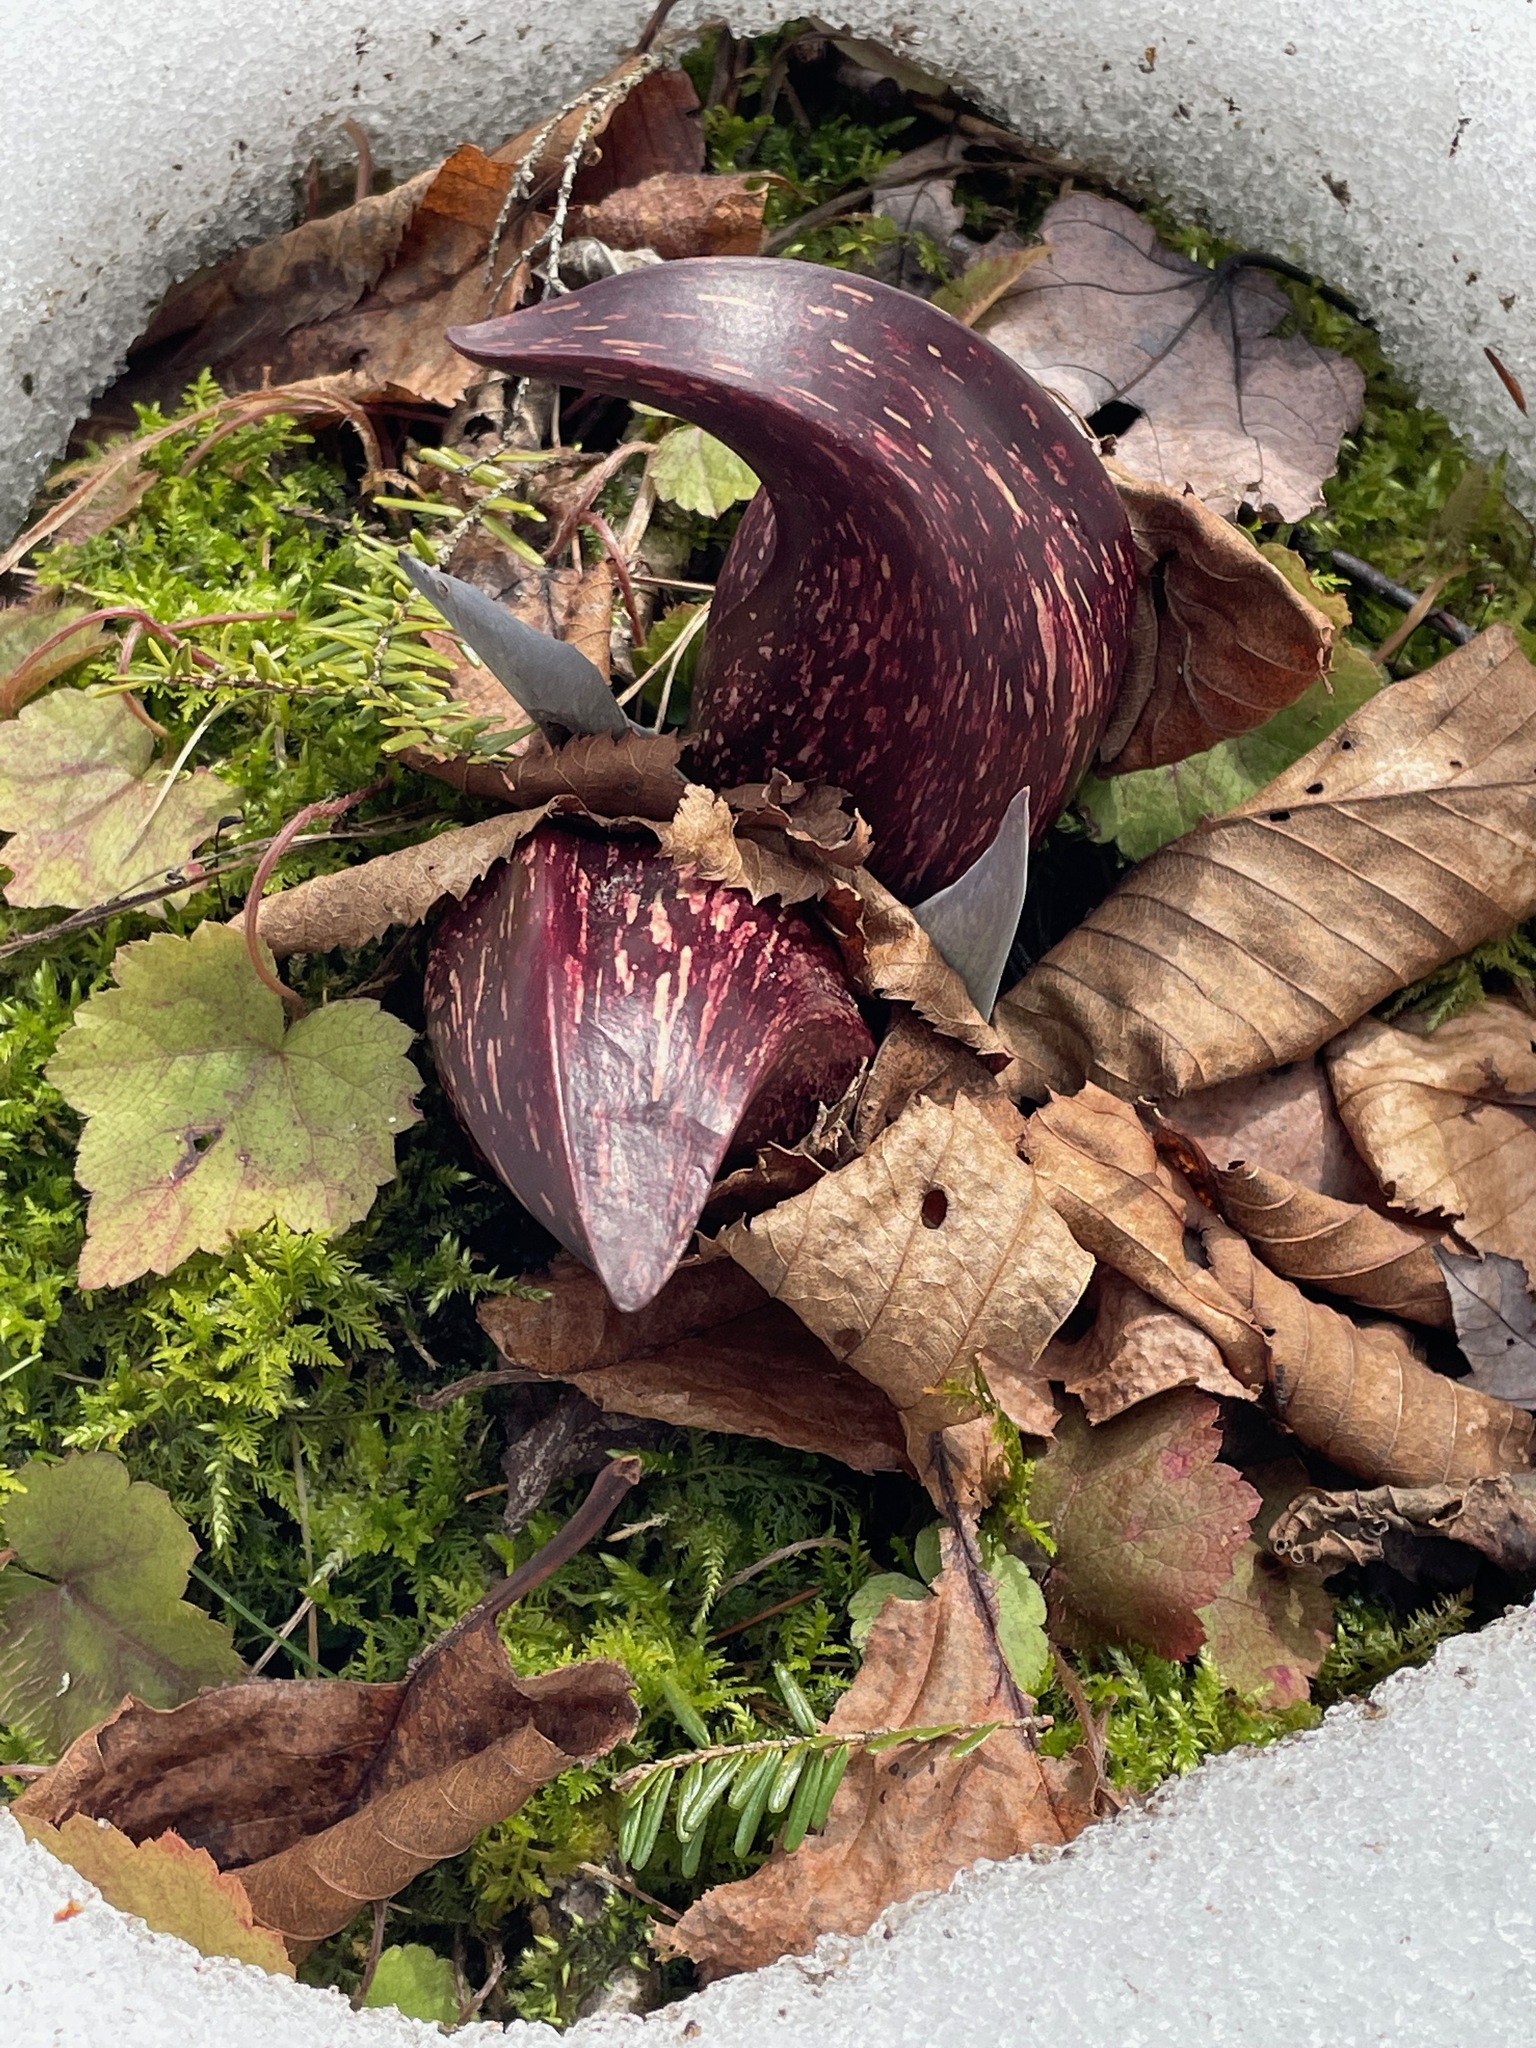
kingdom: Plantae
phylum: Tracheophyta
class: Liliopsida
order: Alismatales
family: Araceae
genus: Symplocarpus
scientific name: Symplocarpus foetidus
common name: Eastern skunk cabbage
